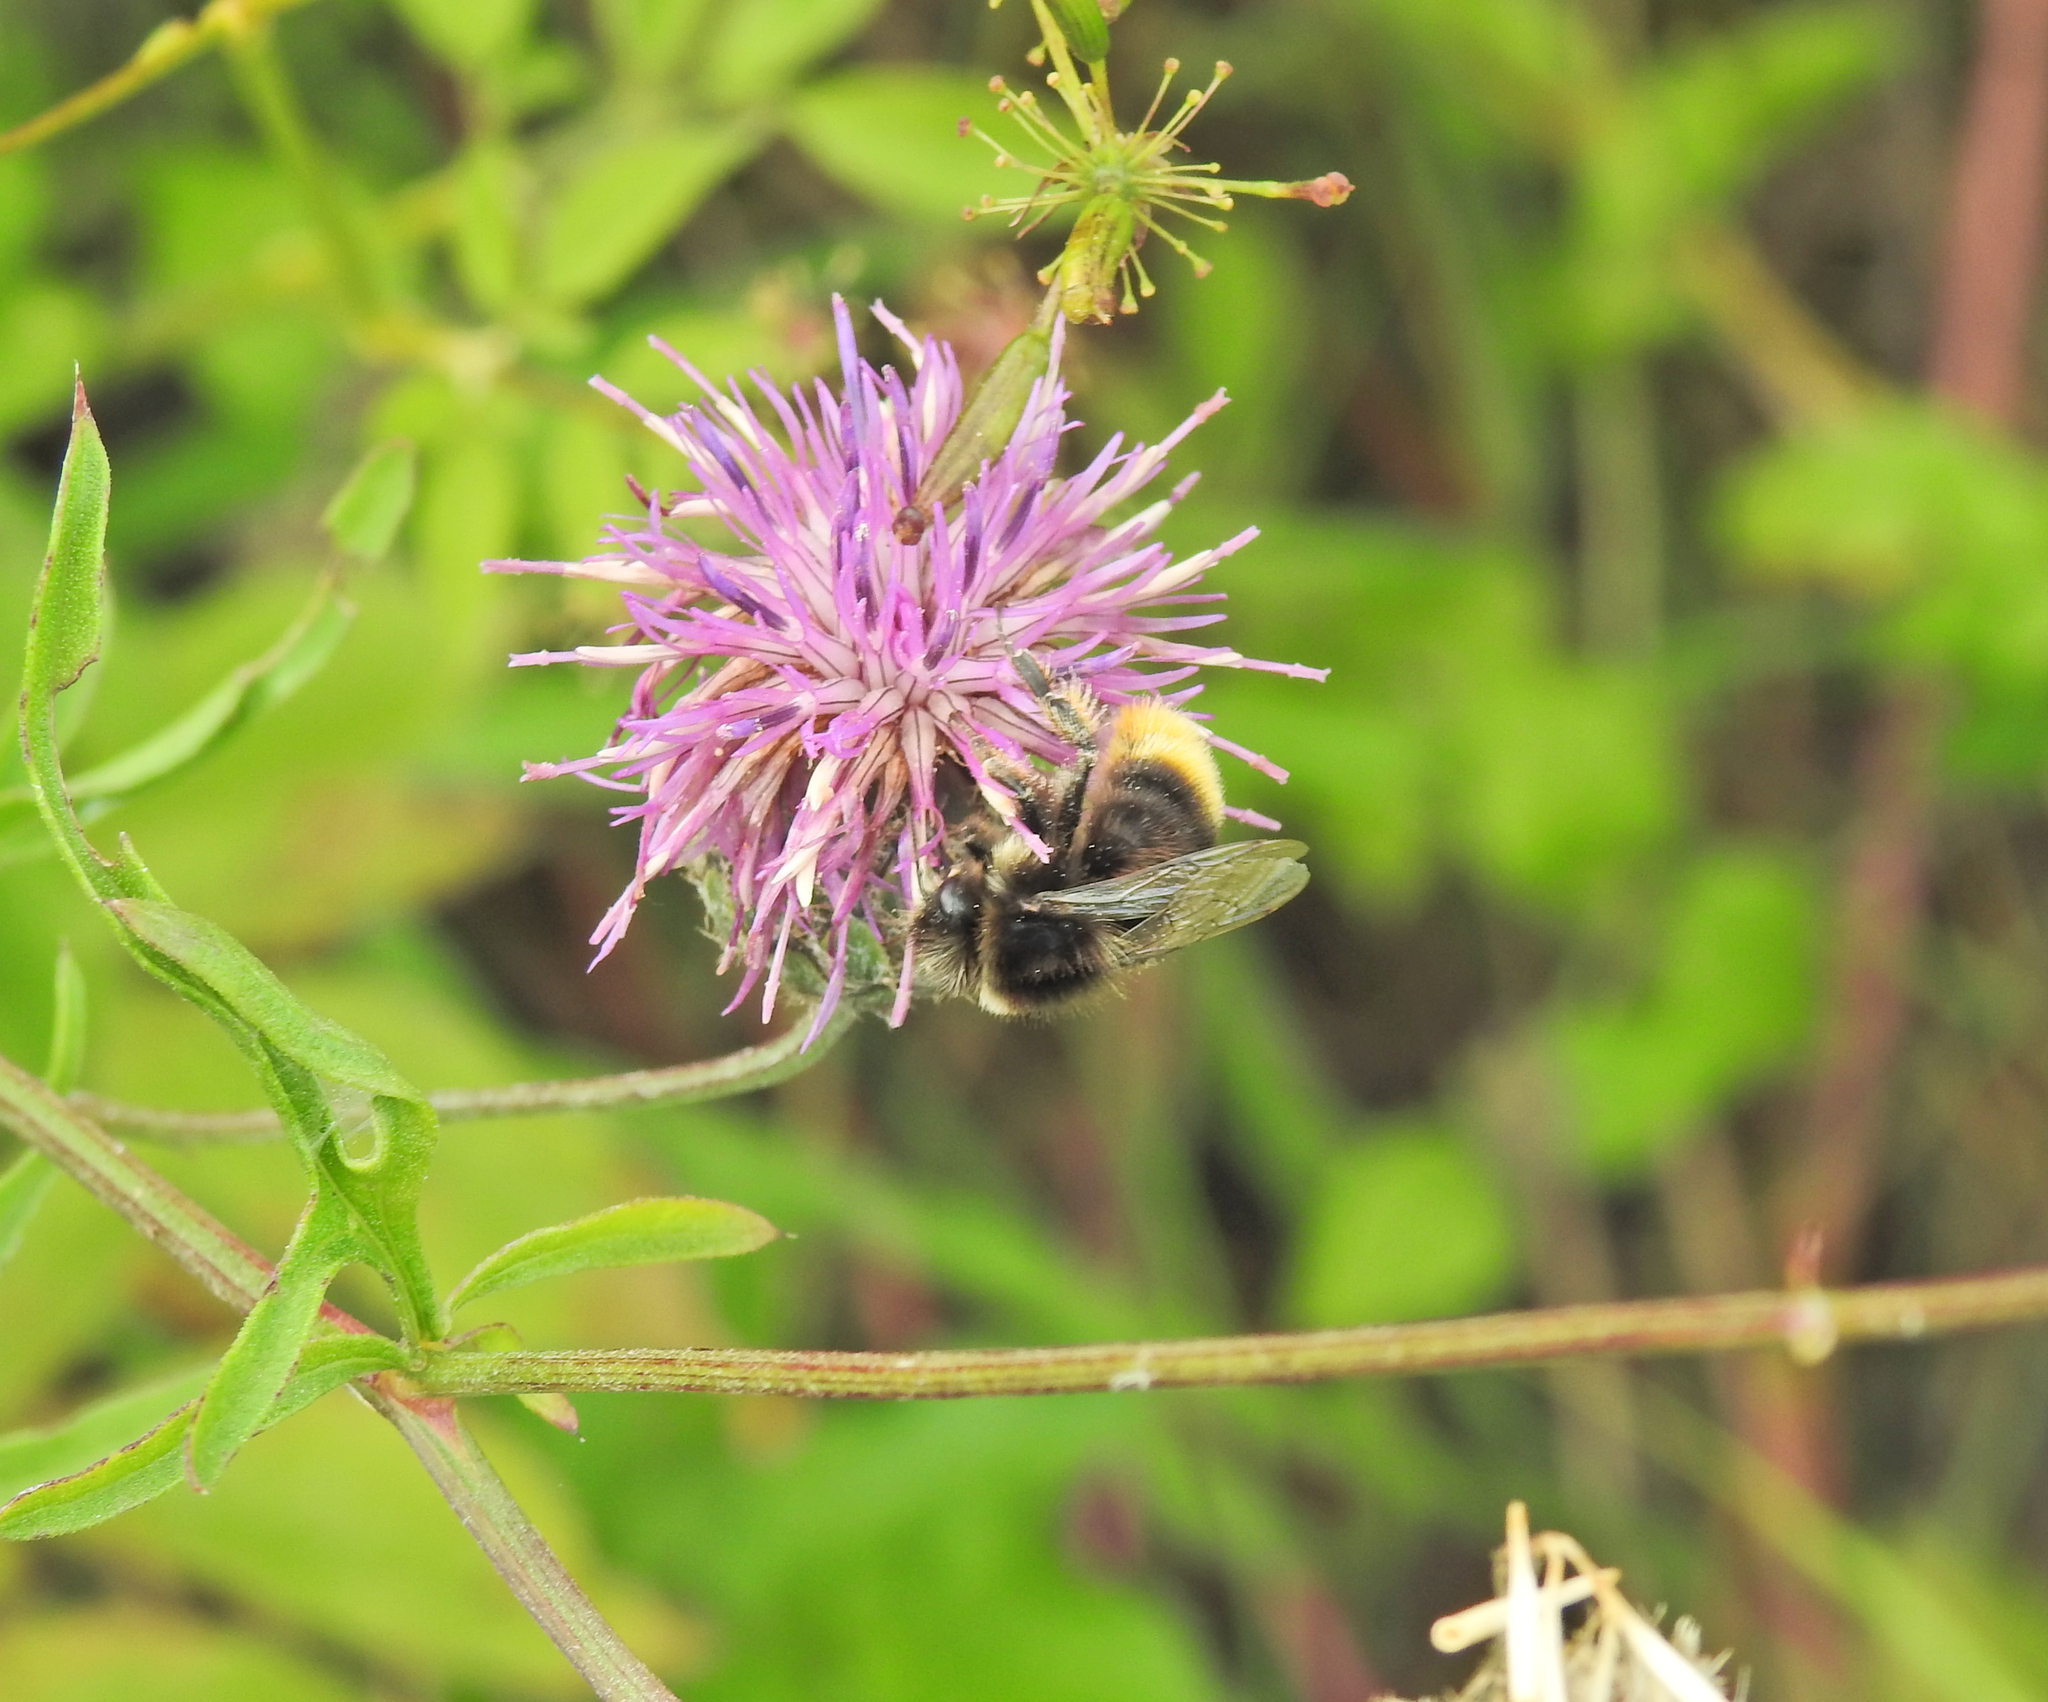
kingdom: Animalia
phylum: Arthropoda
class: Insecta
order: Hymenoptera
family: Apidae
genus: Bombus
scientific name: Bombus lapidarius
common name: Large red-tailed humble-bee
